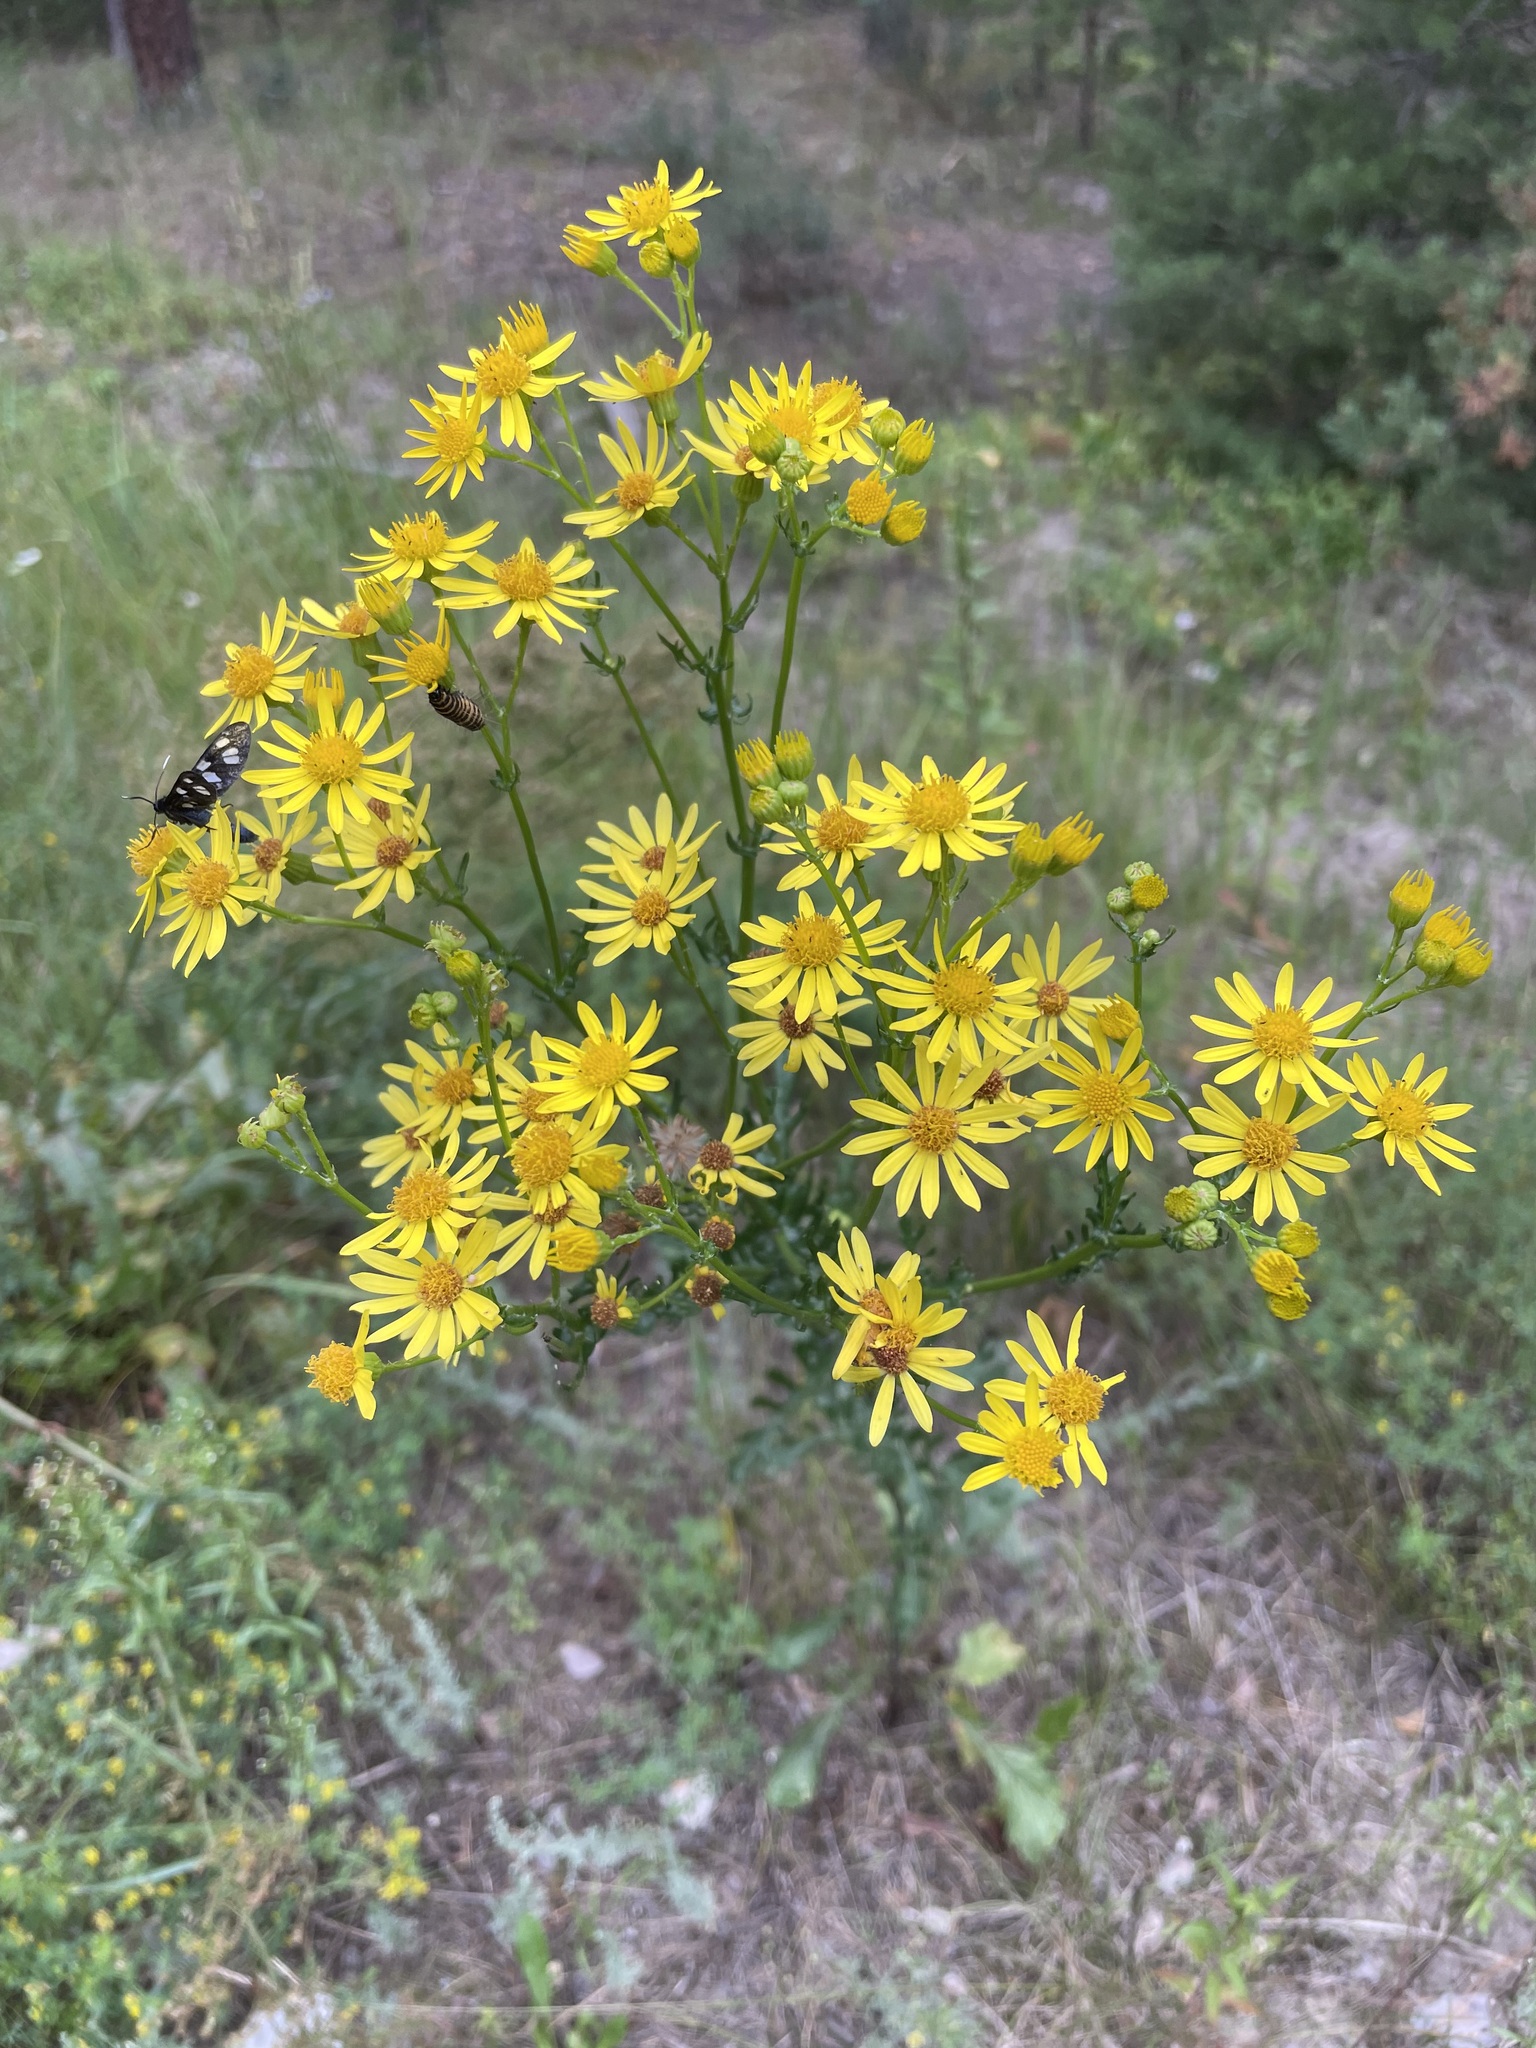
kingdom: Plantae
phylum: Tracheophyta
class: Magnoliopsida
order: Asterales
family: Asteraceae
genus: Jacobaea
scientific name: Jacobaea vulgaris
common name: Stinking willie
